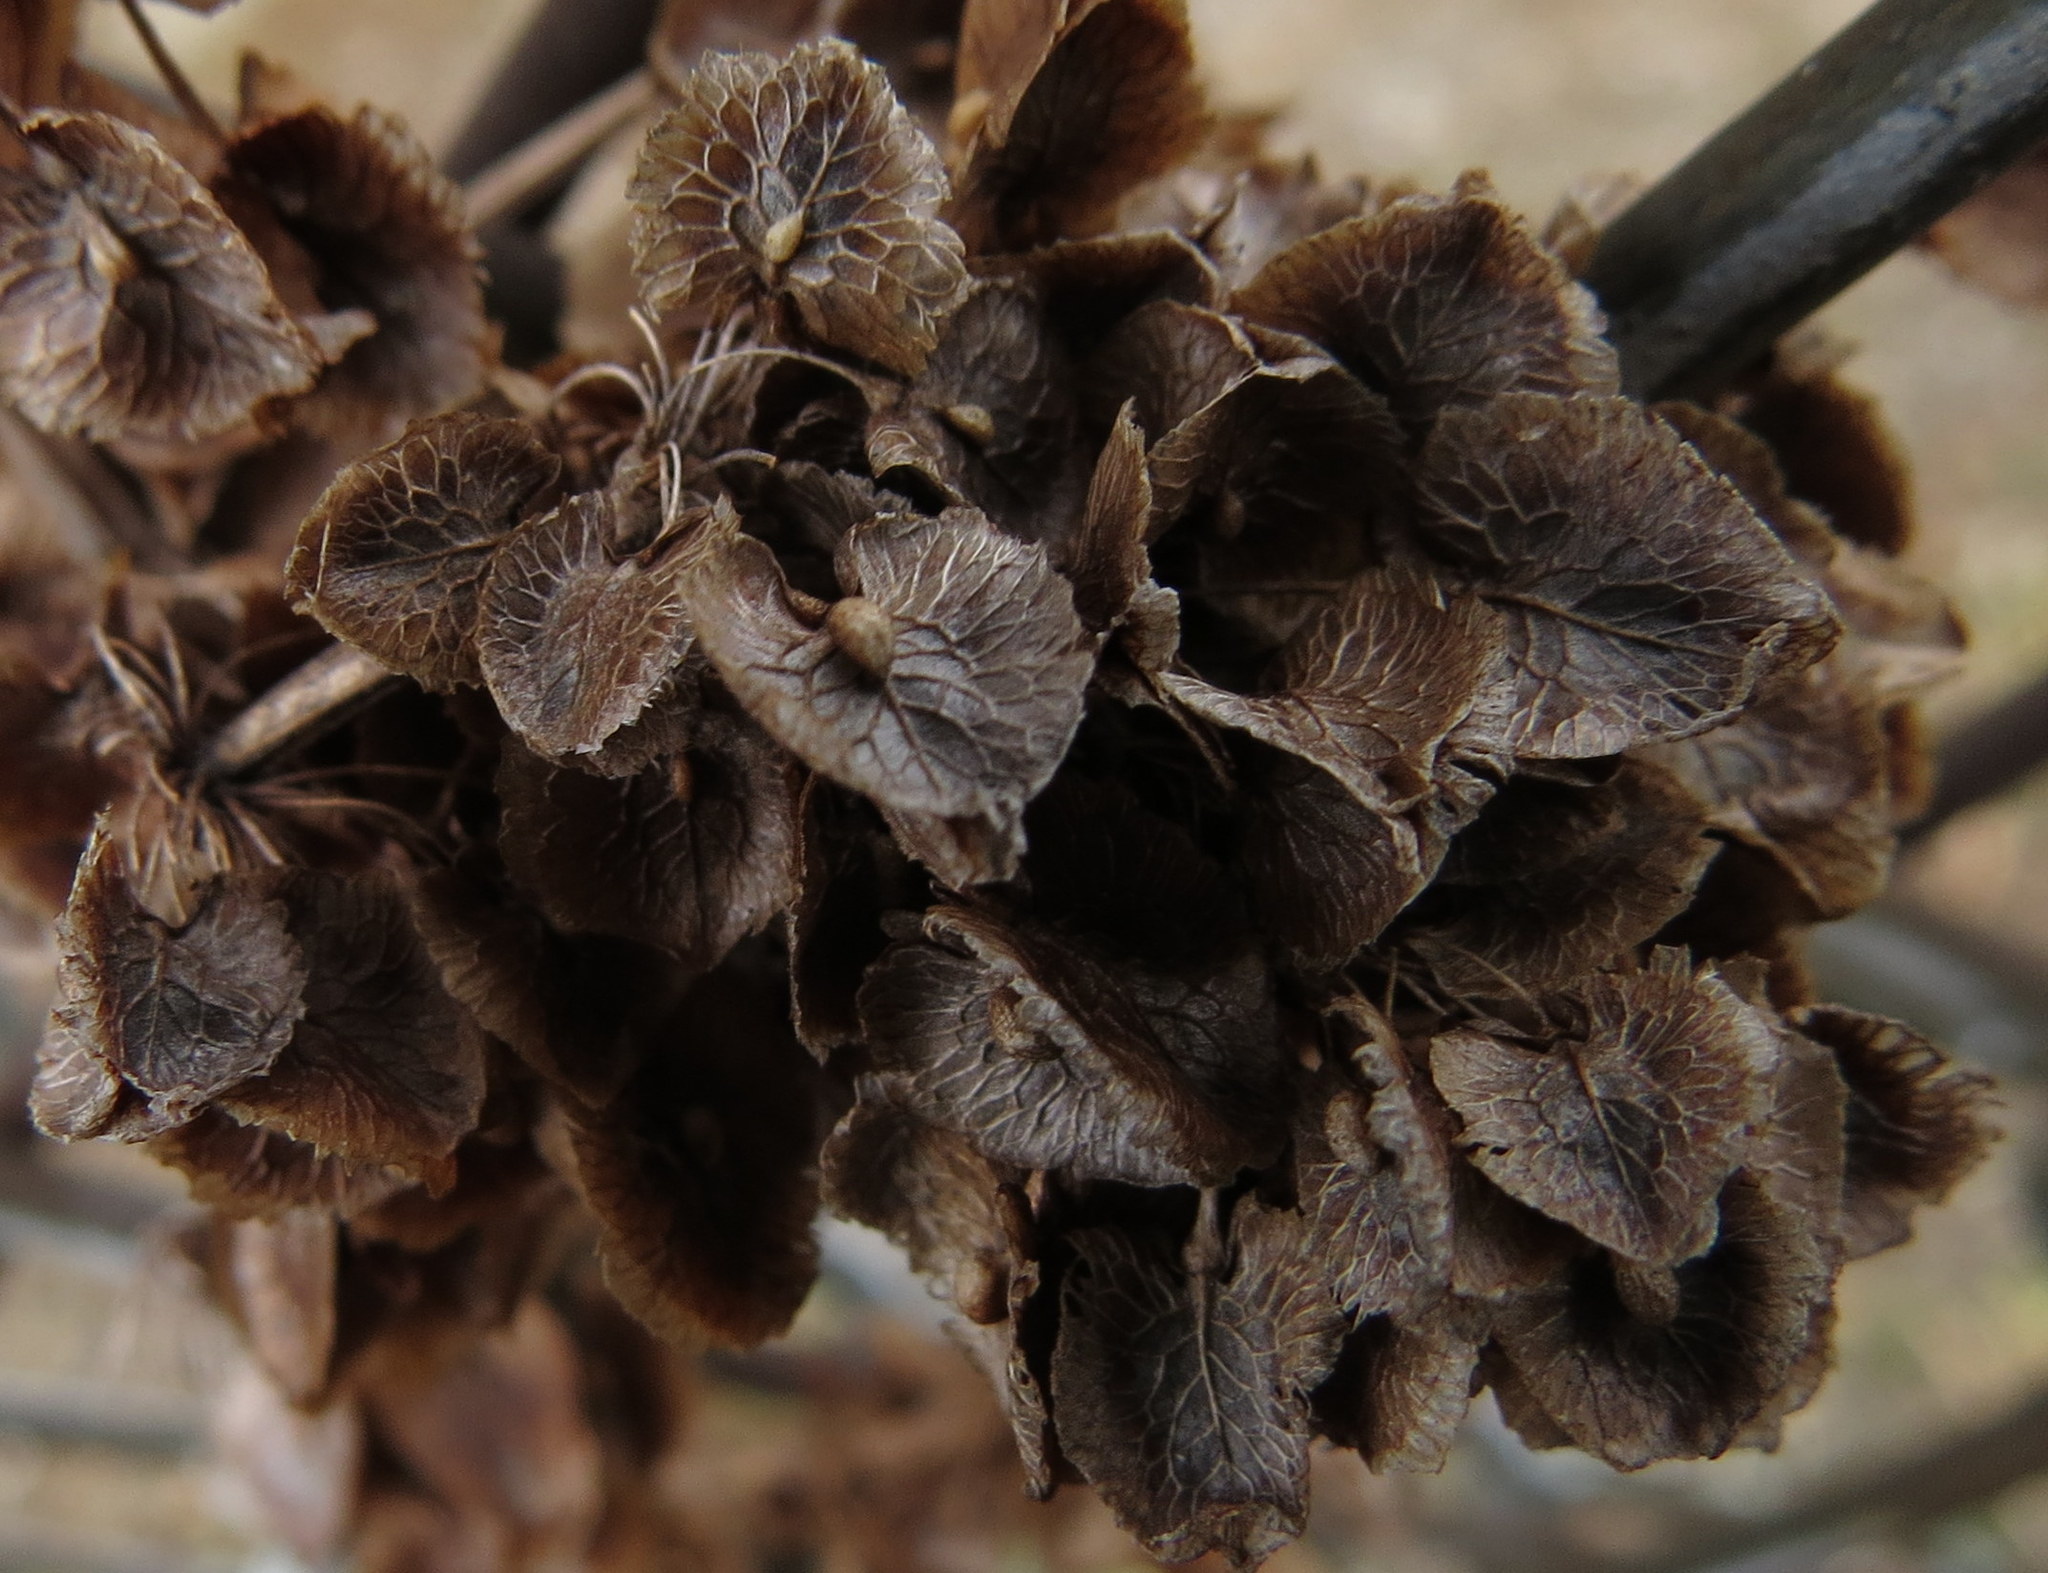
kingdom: Plantae
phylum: Tracheophyta
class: Magnoliopsida
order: Caryophyllales
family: Polygonaceae
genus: Rumex
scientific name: Rumex crispus
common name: Curled dock
